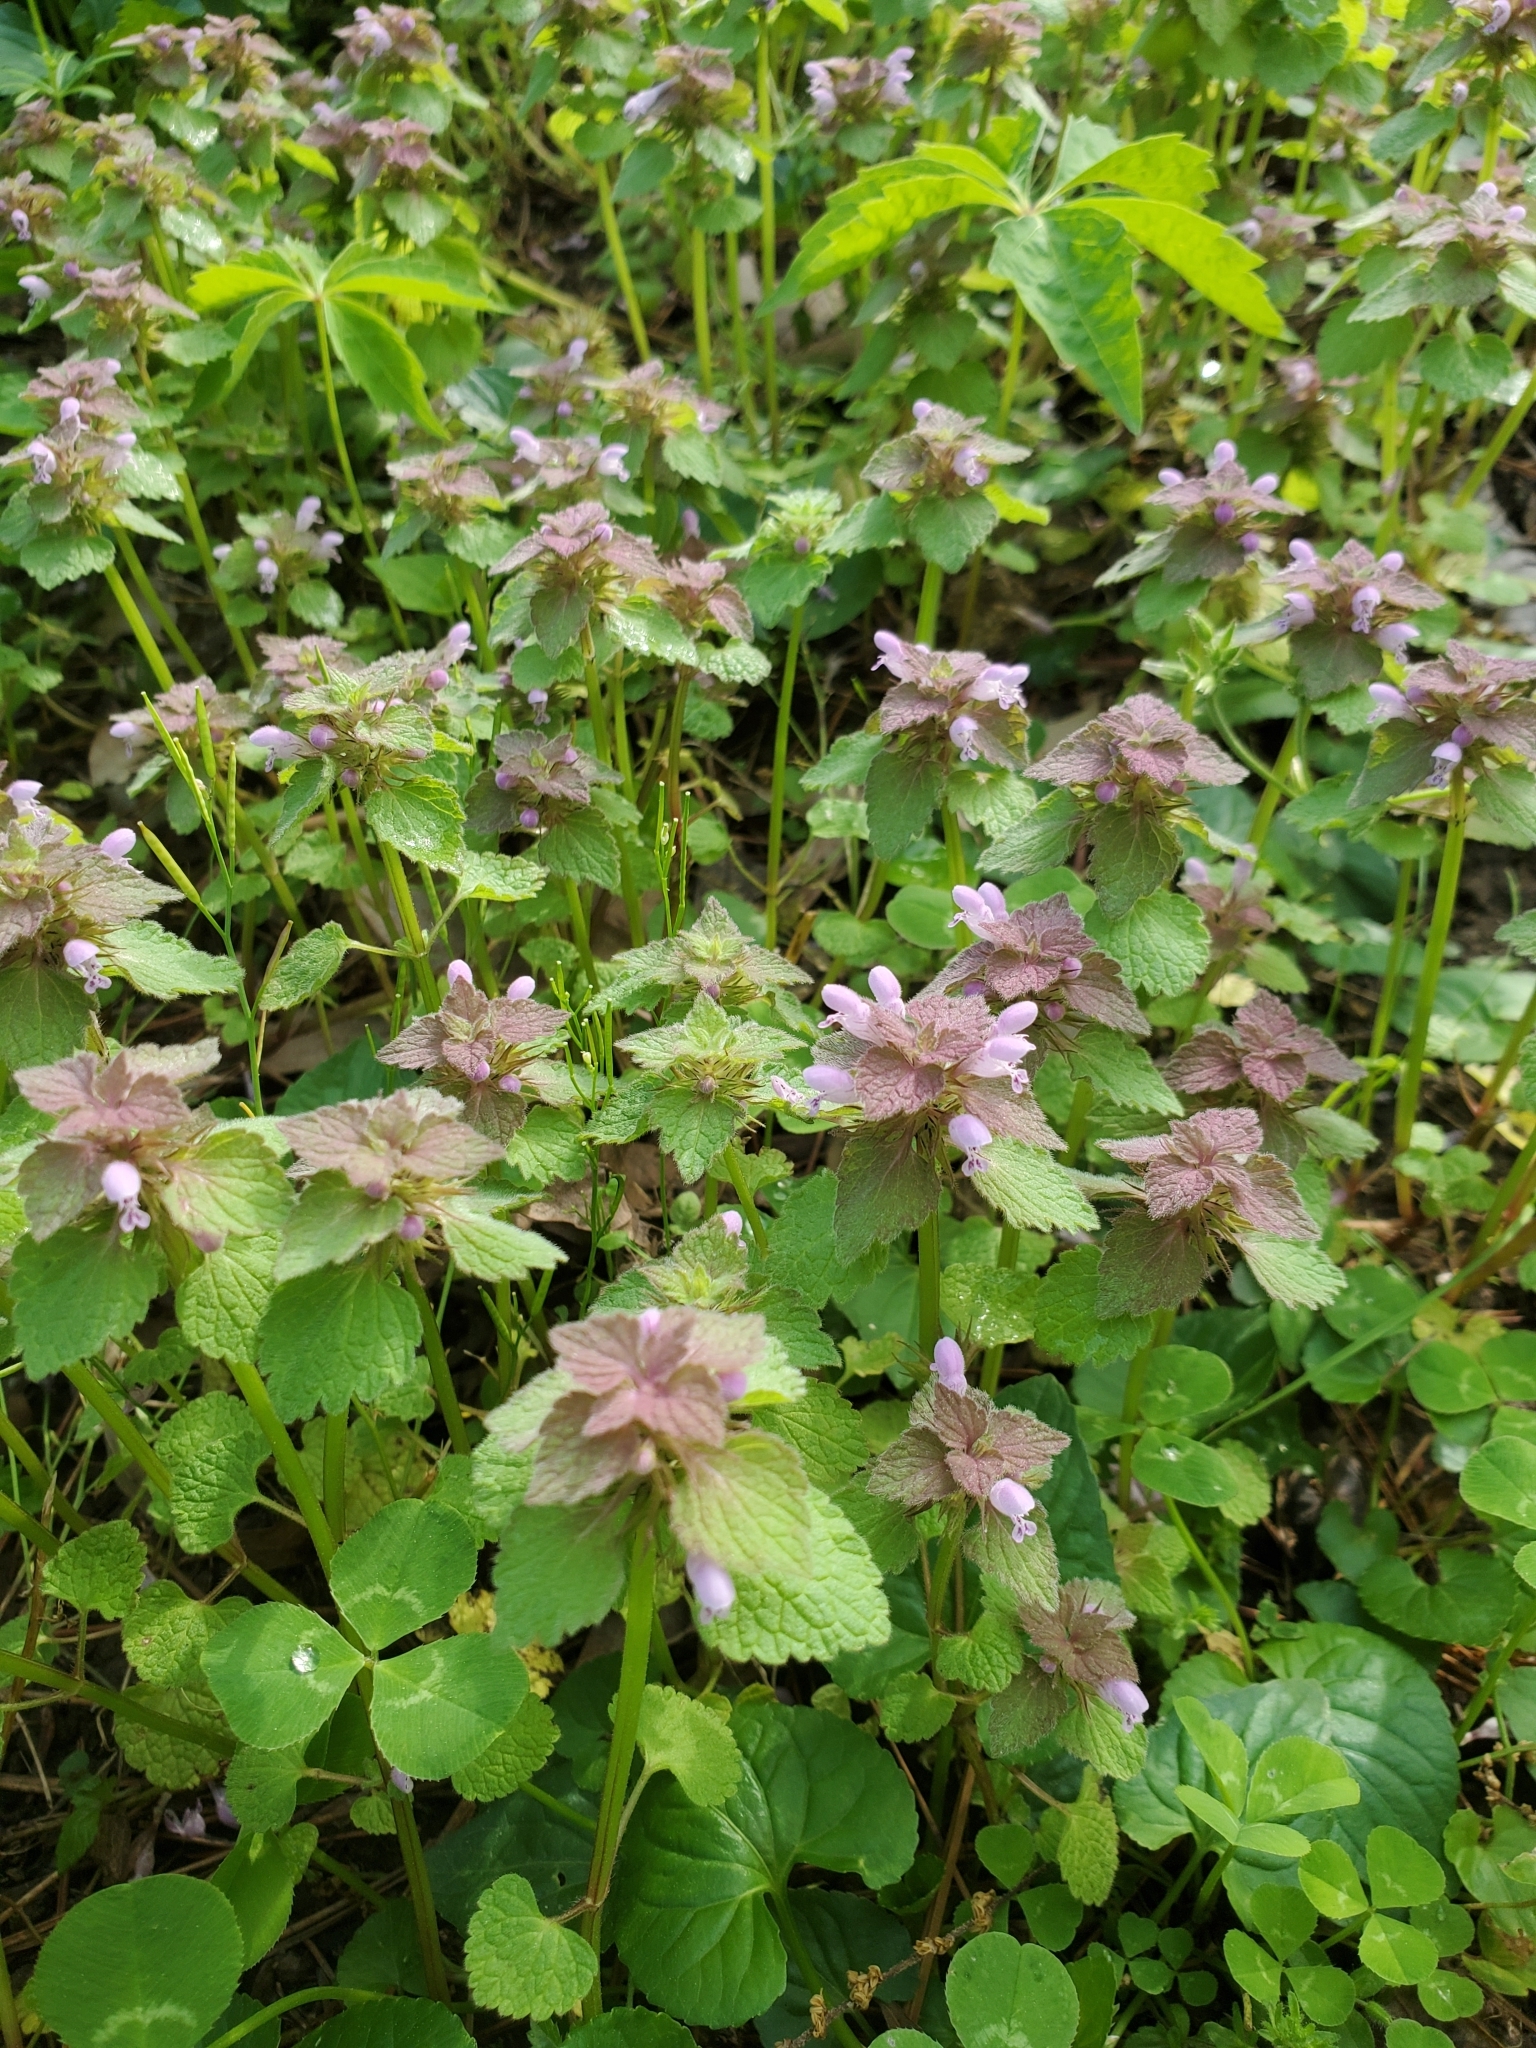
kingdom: Plantae
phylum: Tracheophyta
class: Magnoliopsida
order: Lamiales
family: Lamiaceae
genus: Lamium
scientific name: Lamium purpureum
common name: Red dead-nettle
